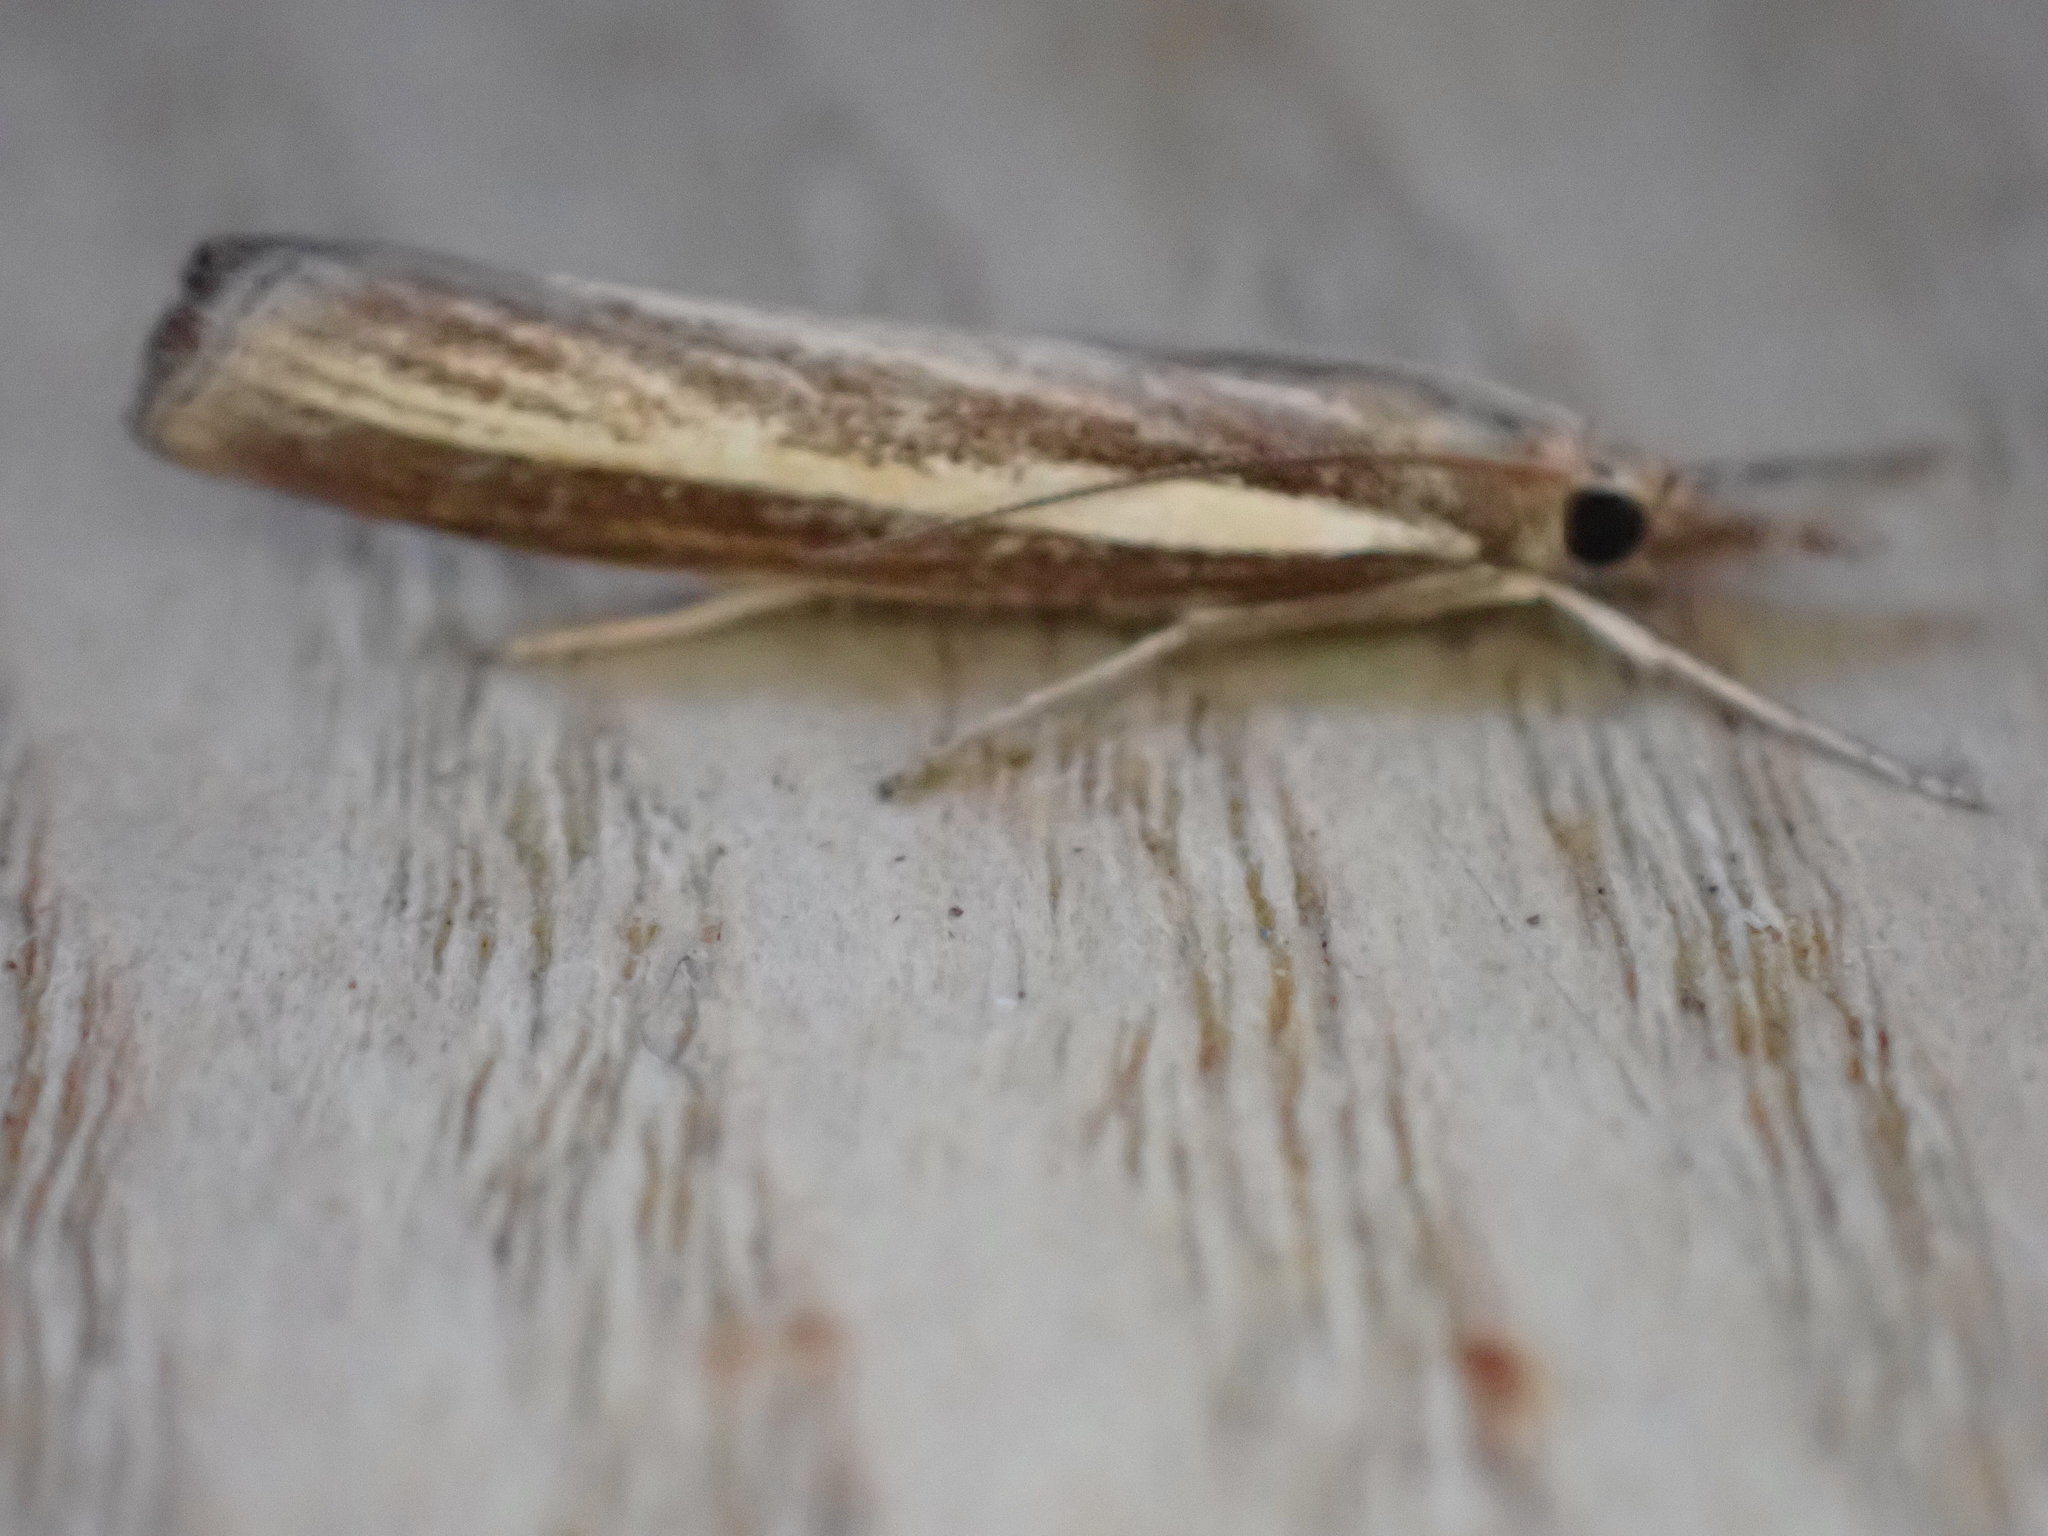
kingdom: Animalia
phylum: Arthropoda
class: Insecta
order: Lepidoptera
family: Crambidae
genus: Agriphila
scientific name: Agriphila tristellus
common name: Common grass-veneer
